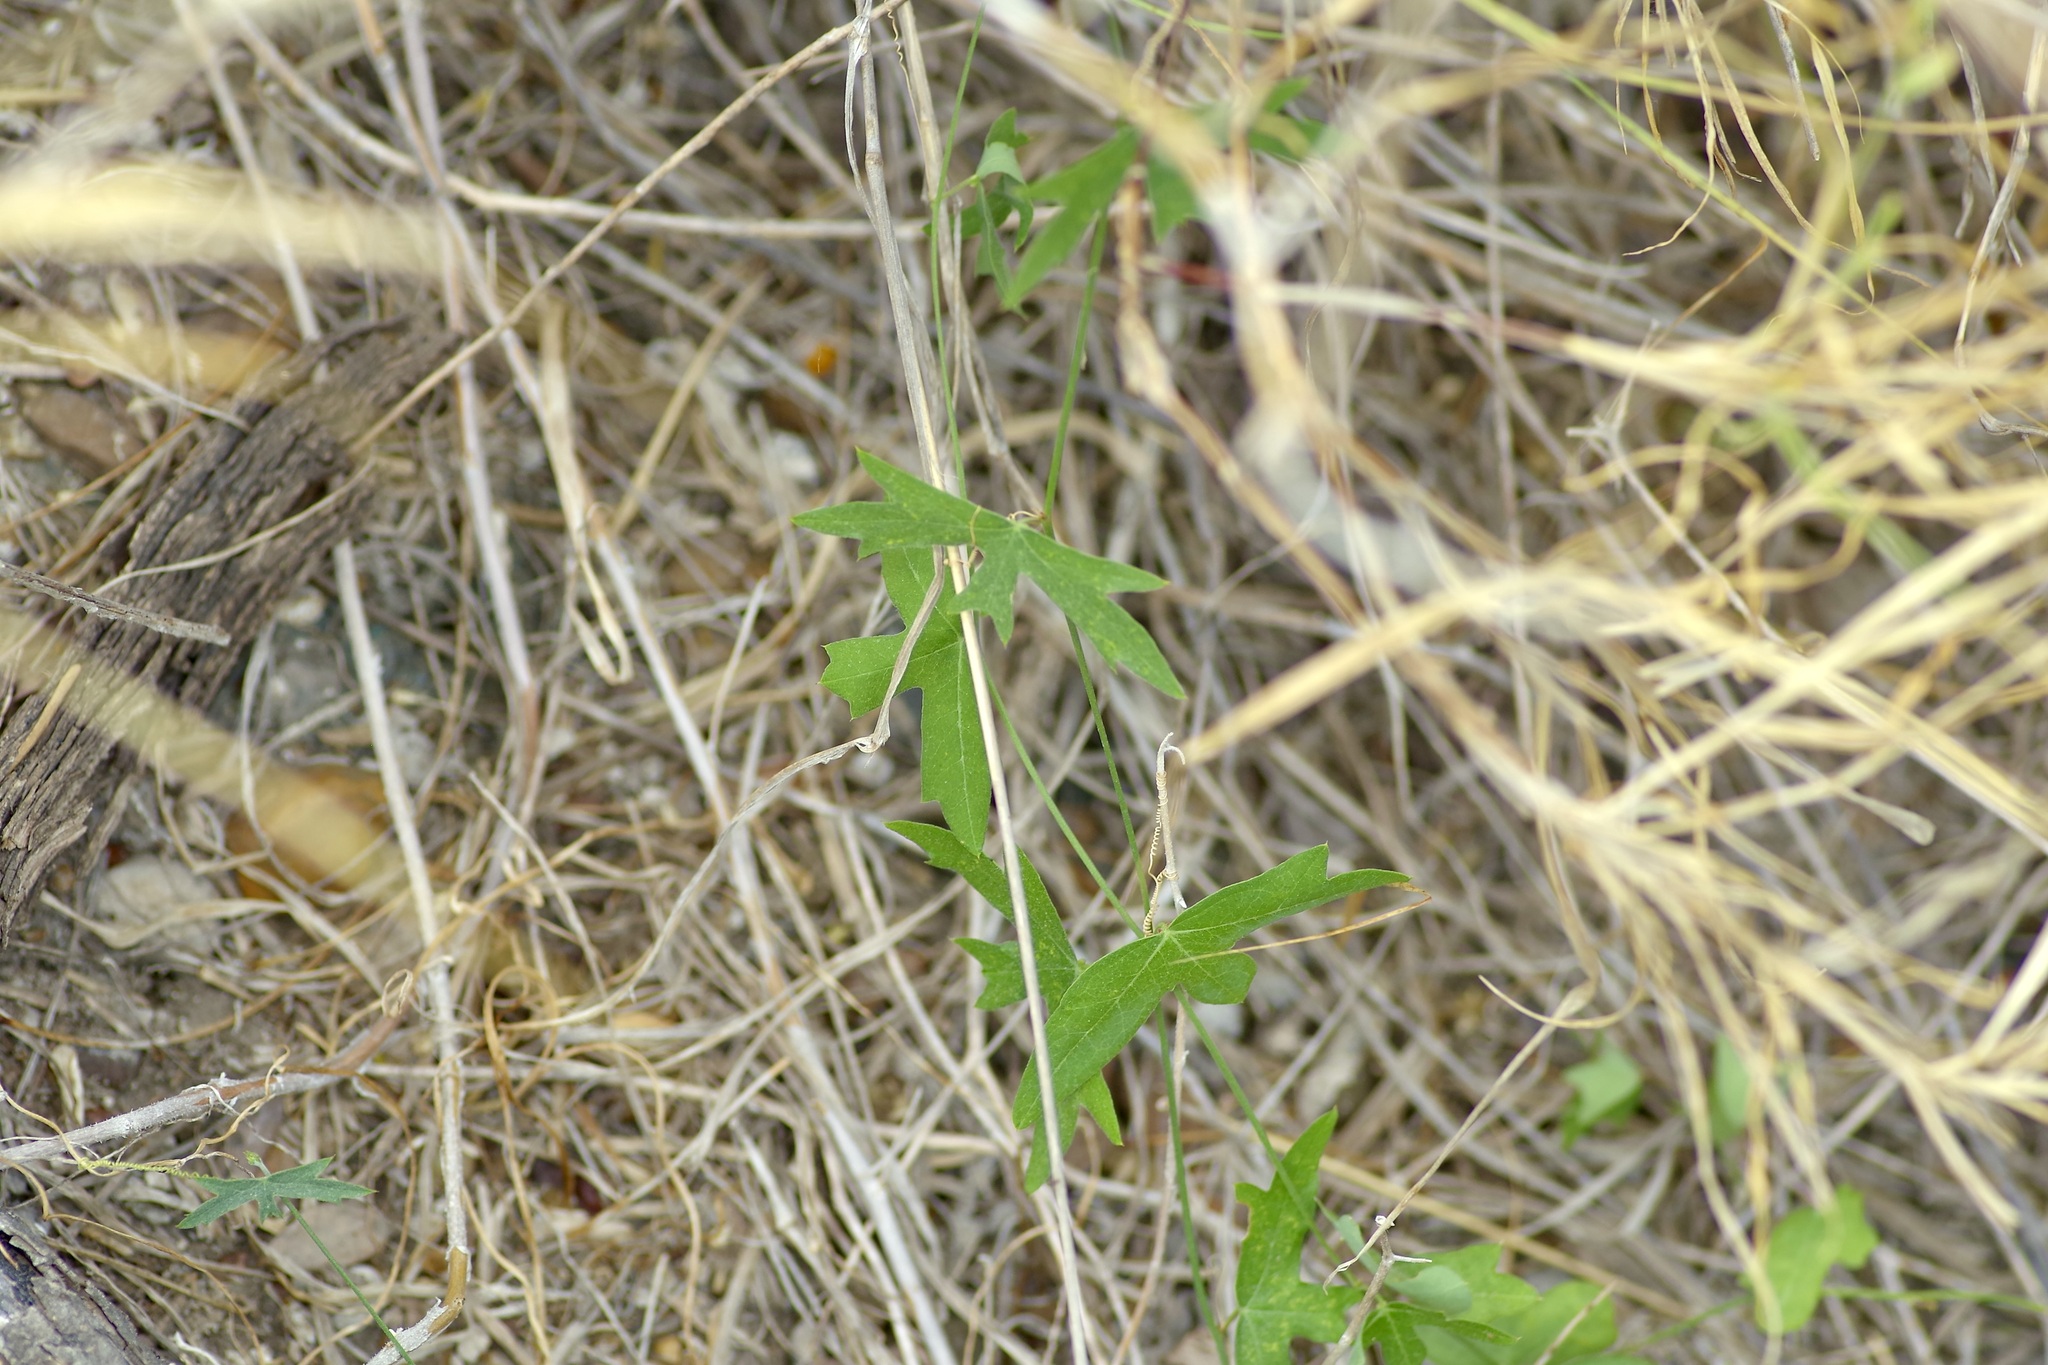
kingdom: Plantae
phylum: Tracheophyta
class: Magnoliopsida
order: Malpighiales
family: Passifloraceae
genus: Passiflora
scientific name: Passiflora tenuiloba
